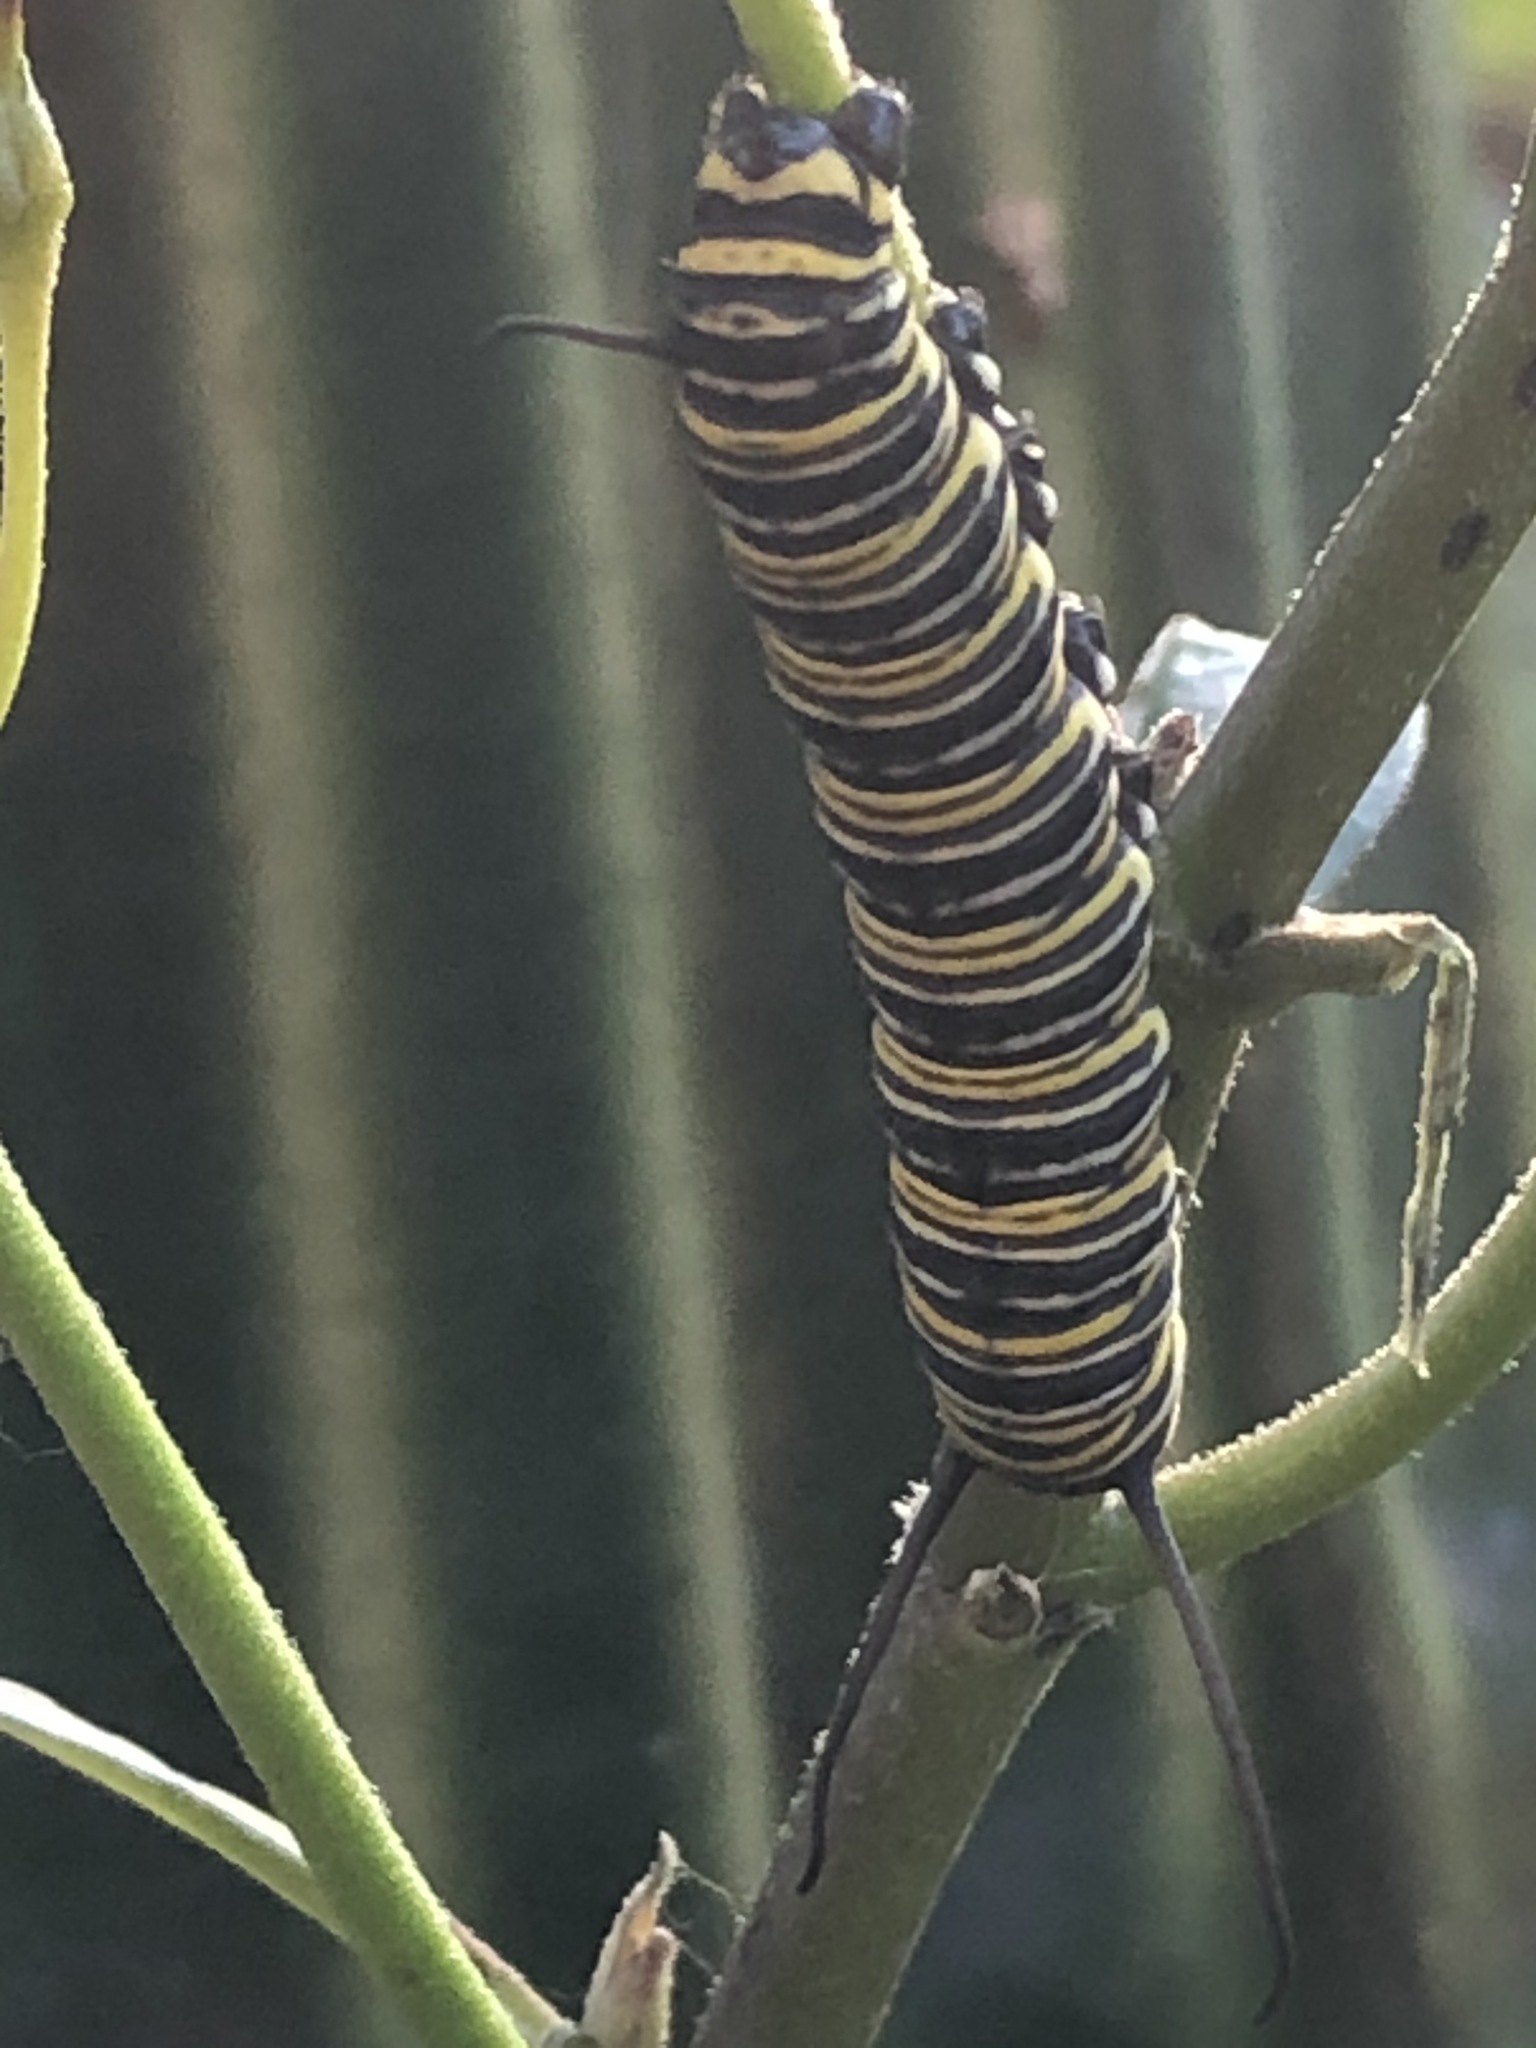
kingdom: Animalia
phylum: Arthropoda
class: Insecta
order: Lepidoptera
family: Nymphalidae
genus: Danaus
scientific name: Danaus plexippus
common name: Monarch
